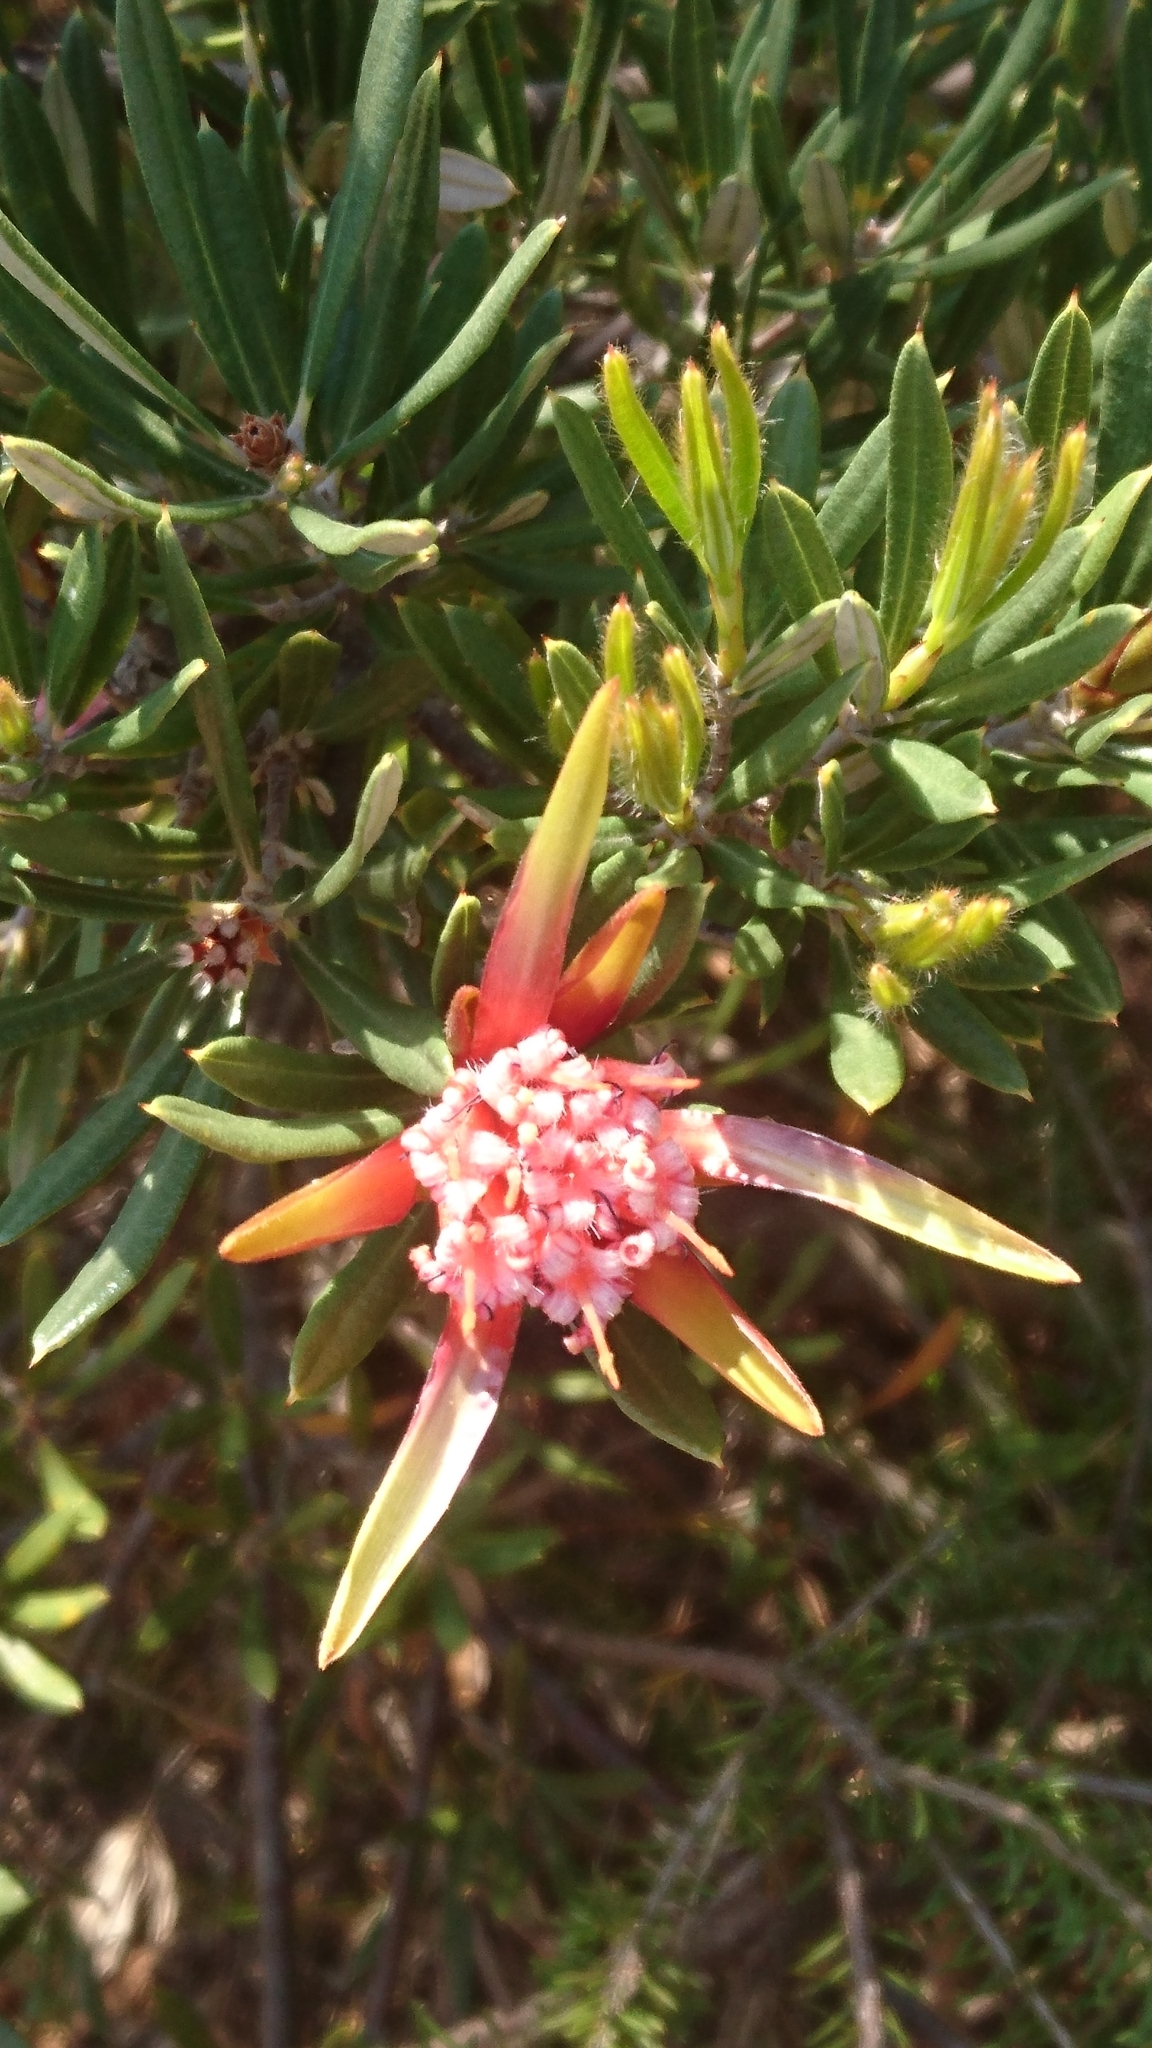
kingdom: Plantae
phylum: Tracheophyta
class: Magnoliopsida
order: Proteales
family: Proteaceae
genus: Lambertia
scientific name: Lambertia formosa
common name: Mountain-devil
